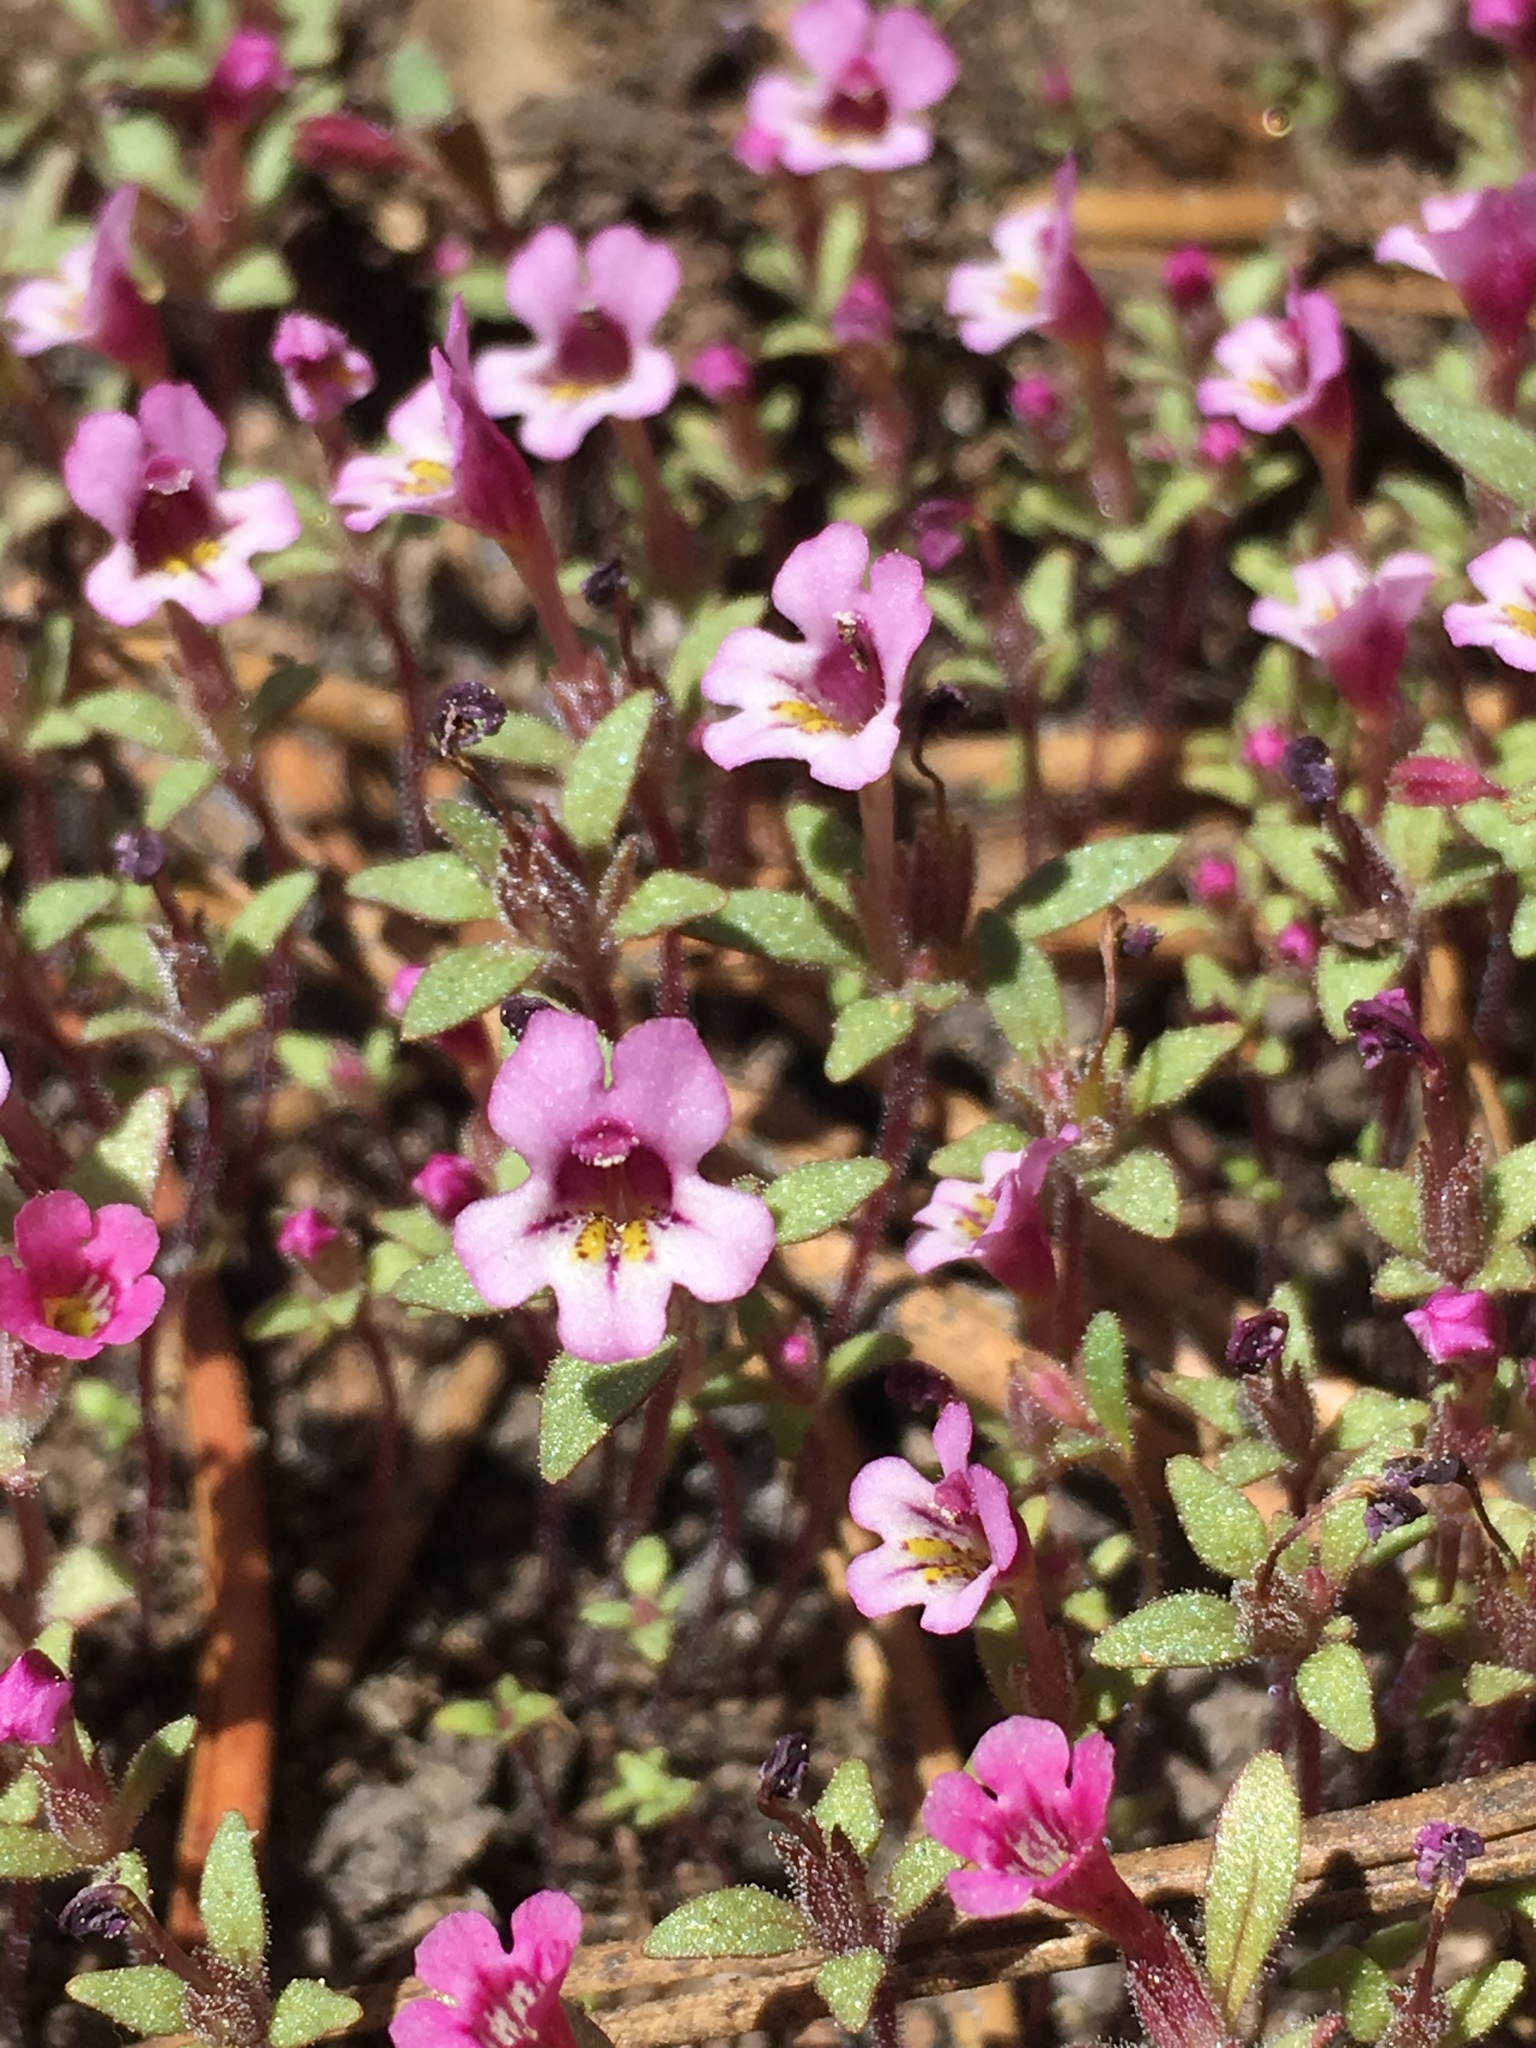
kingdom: Plantae
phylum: Tracheophyta
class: Magnoliopsida
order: Lamiales
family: Phrymaceae
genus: Diplacus
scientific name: Diplacus jepsonii
